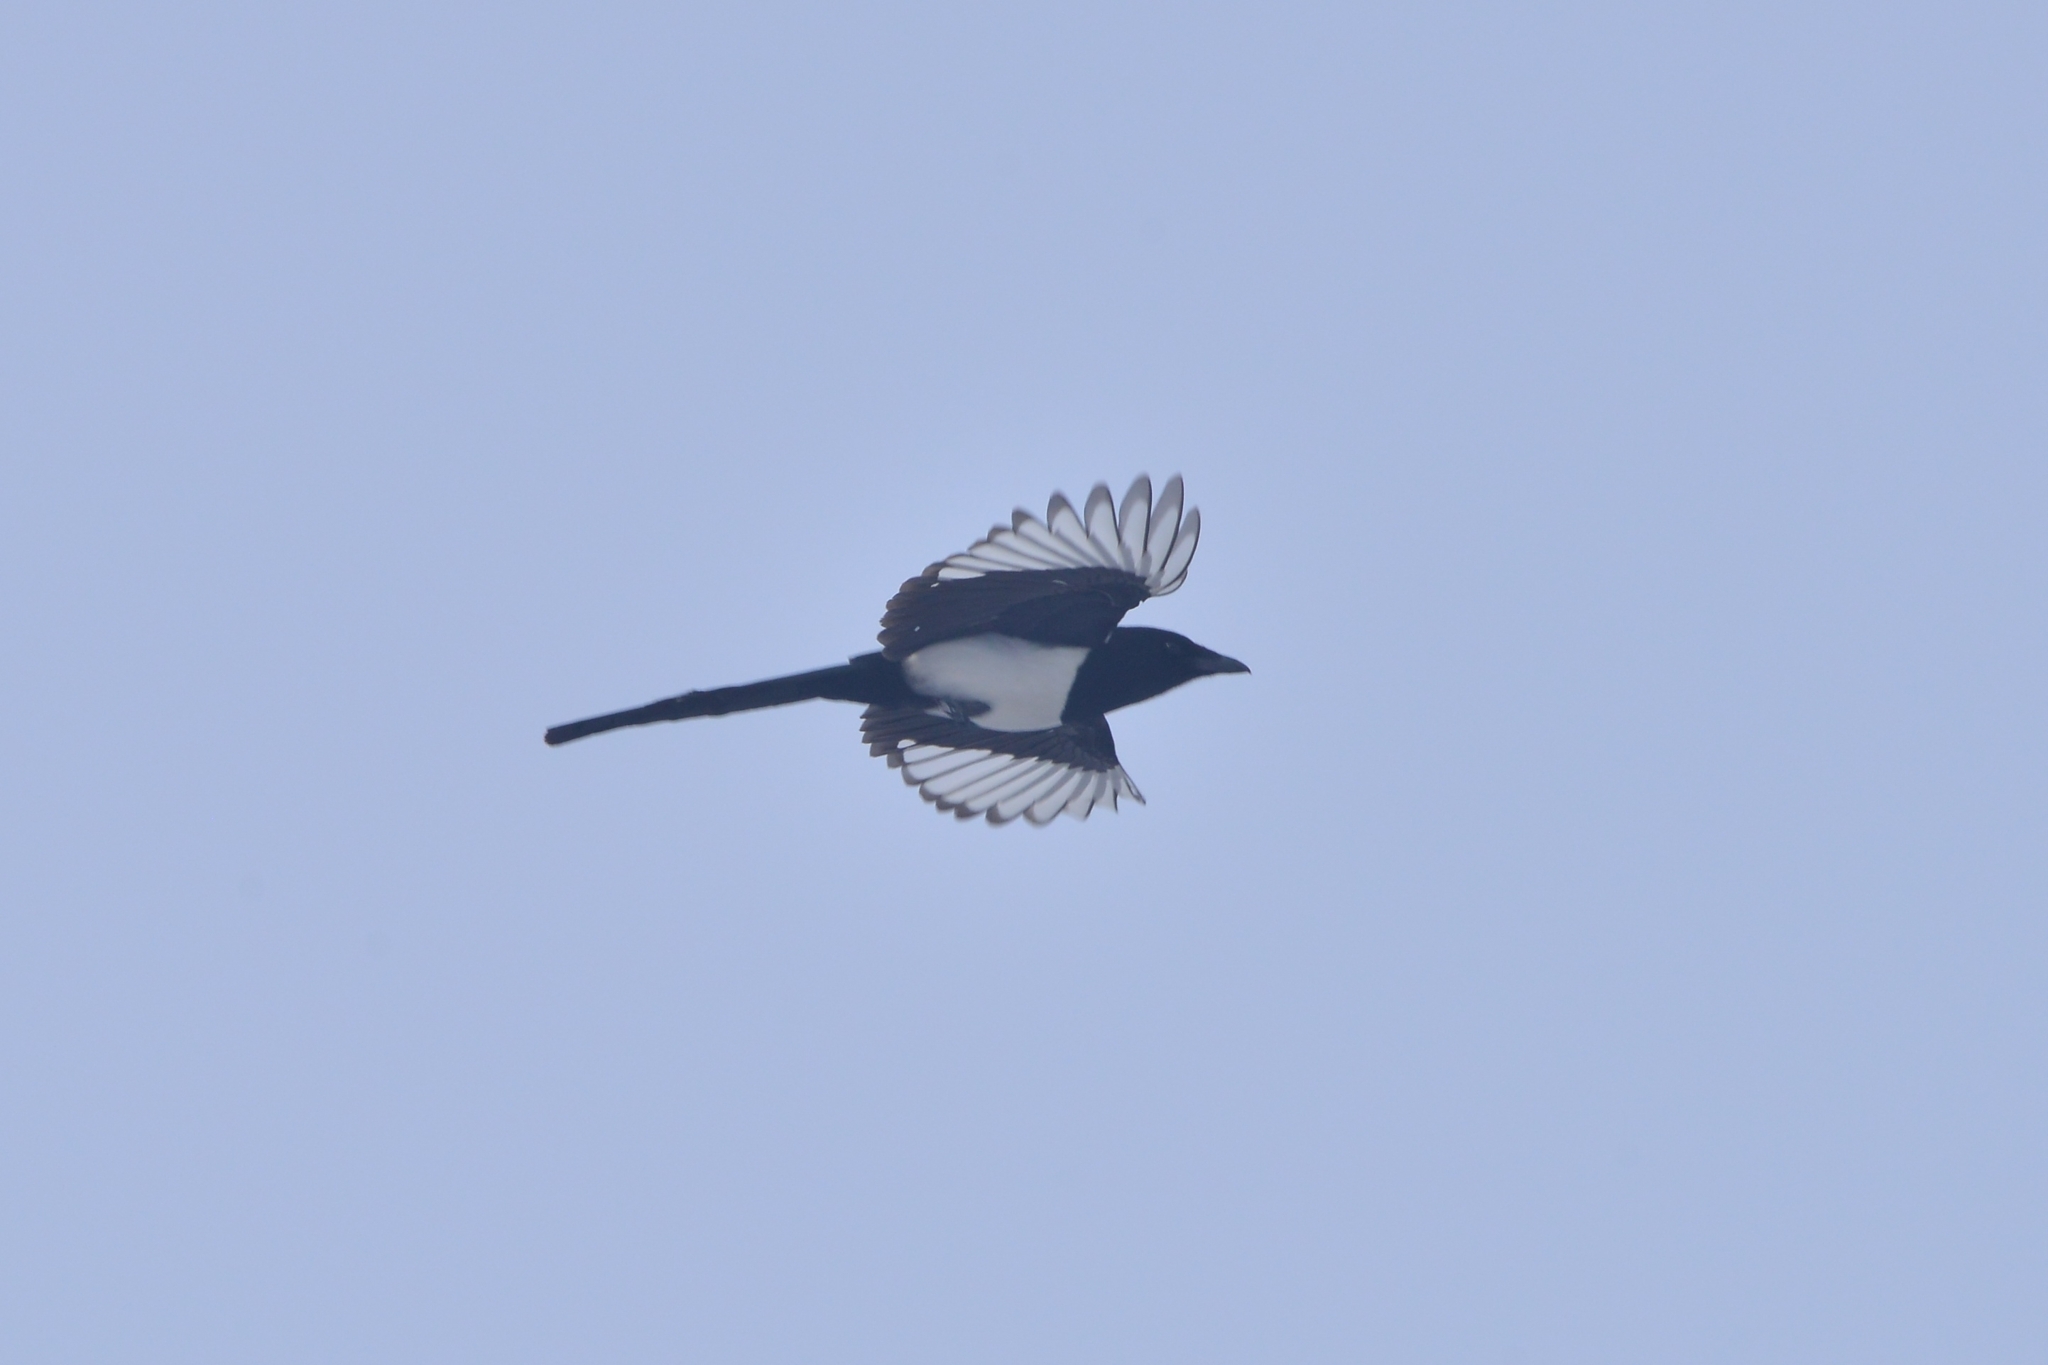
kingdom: Animalia
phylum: Chordata
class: Aves
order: Passeriformes
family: Corvidae
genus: Pica
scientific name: Pica pica
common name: Eurasian magpie
